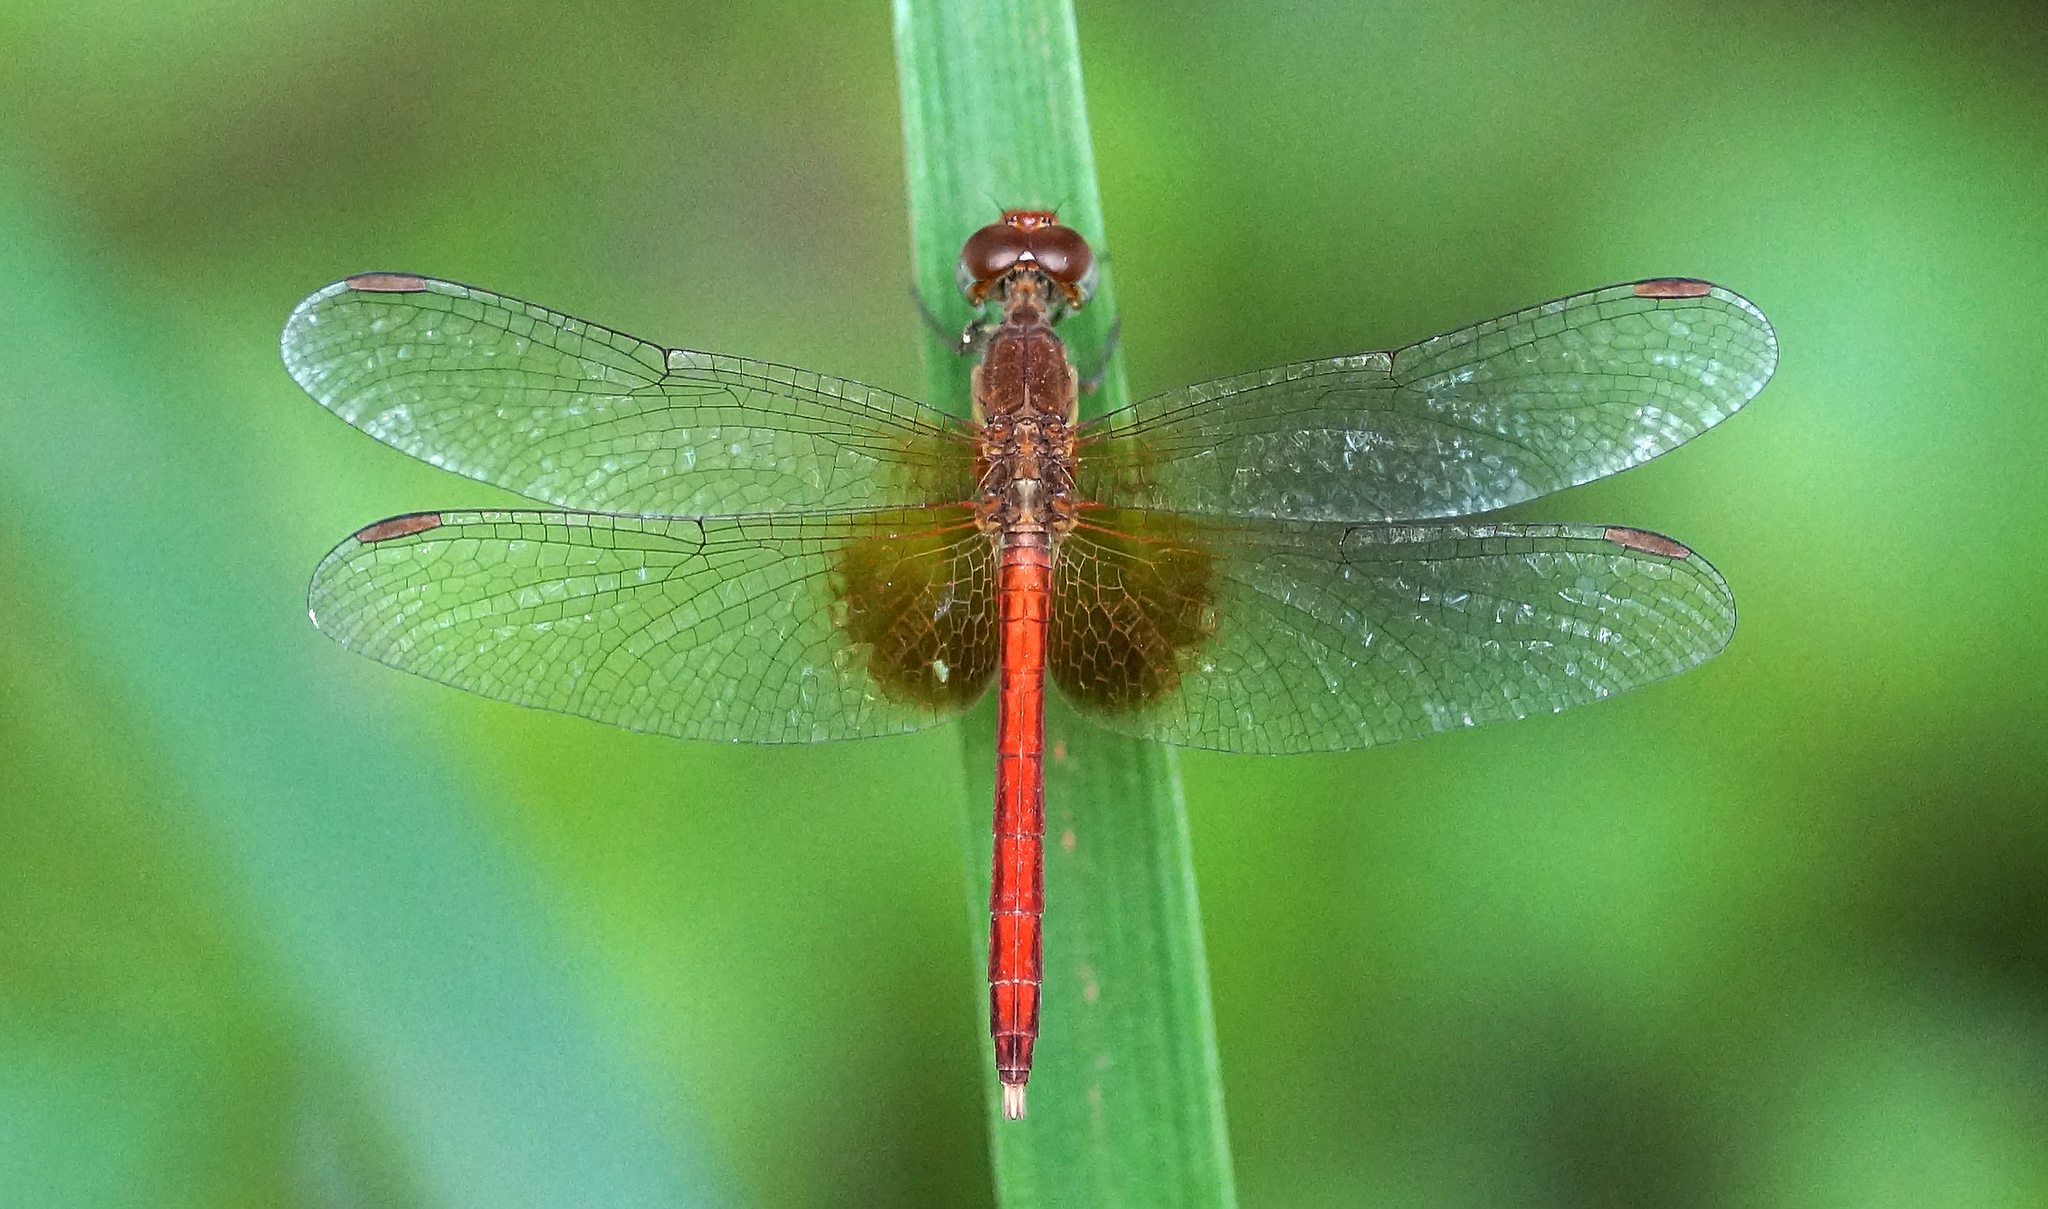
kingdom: Animalia
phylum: Arthropoda
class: Insecta
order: Odonata
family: Libellulidae
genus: Neurothemis
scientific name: Neurothemis intermedia
